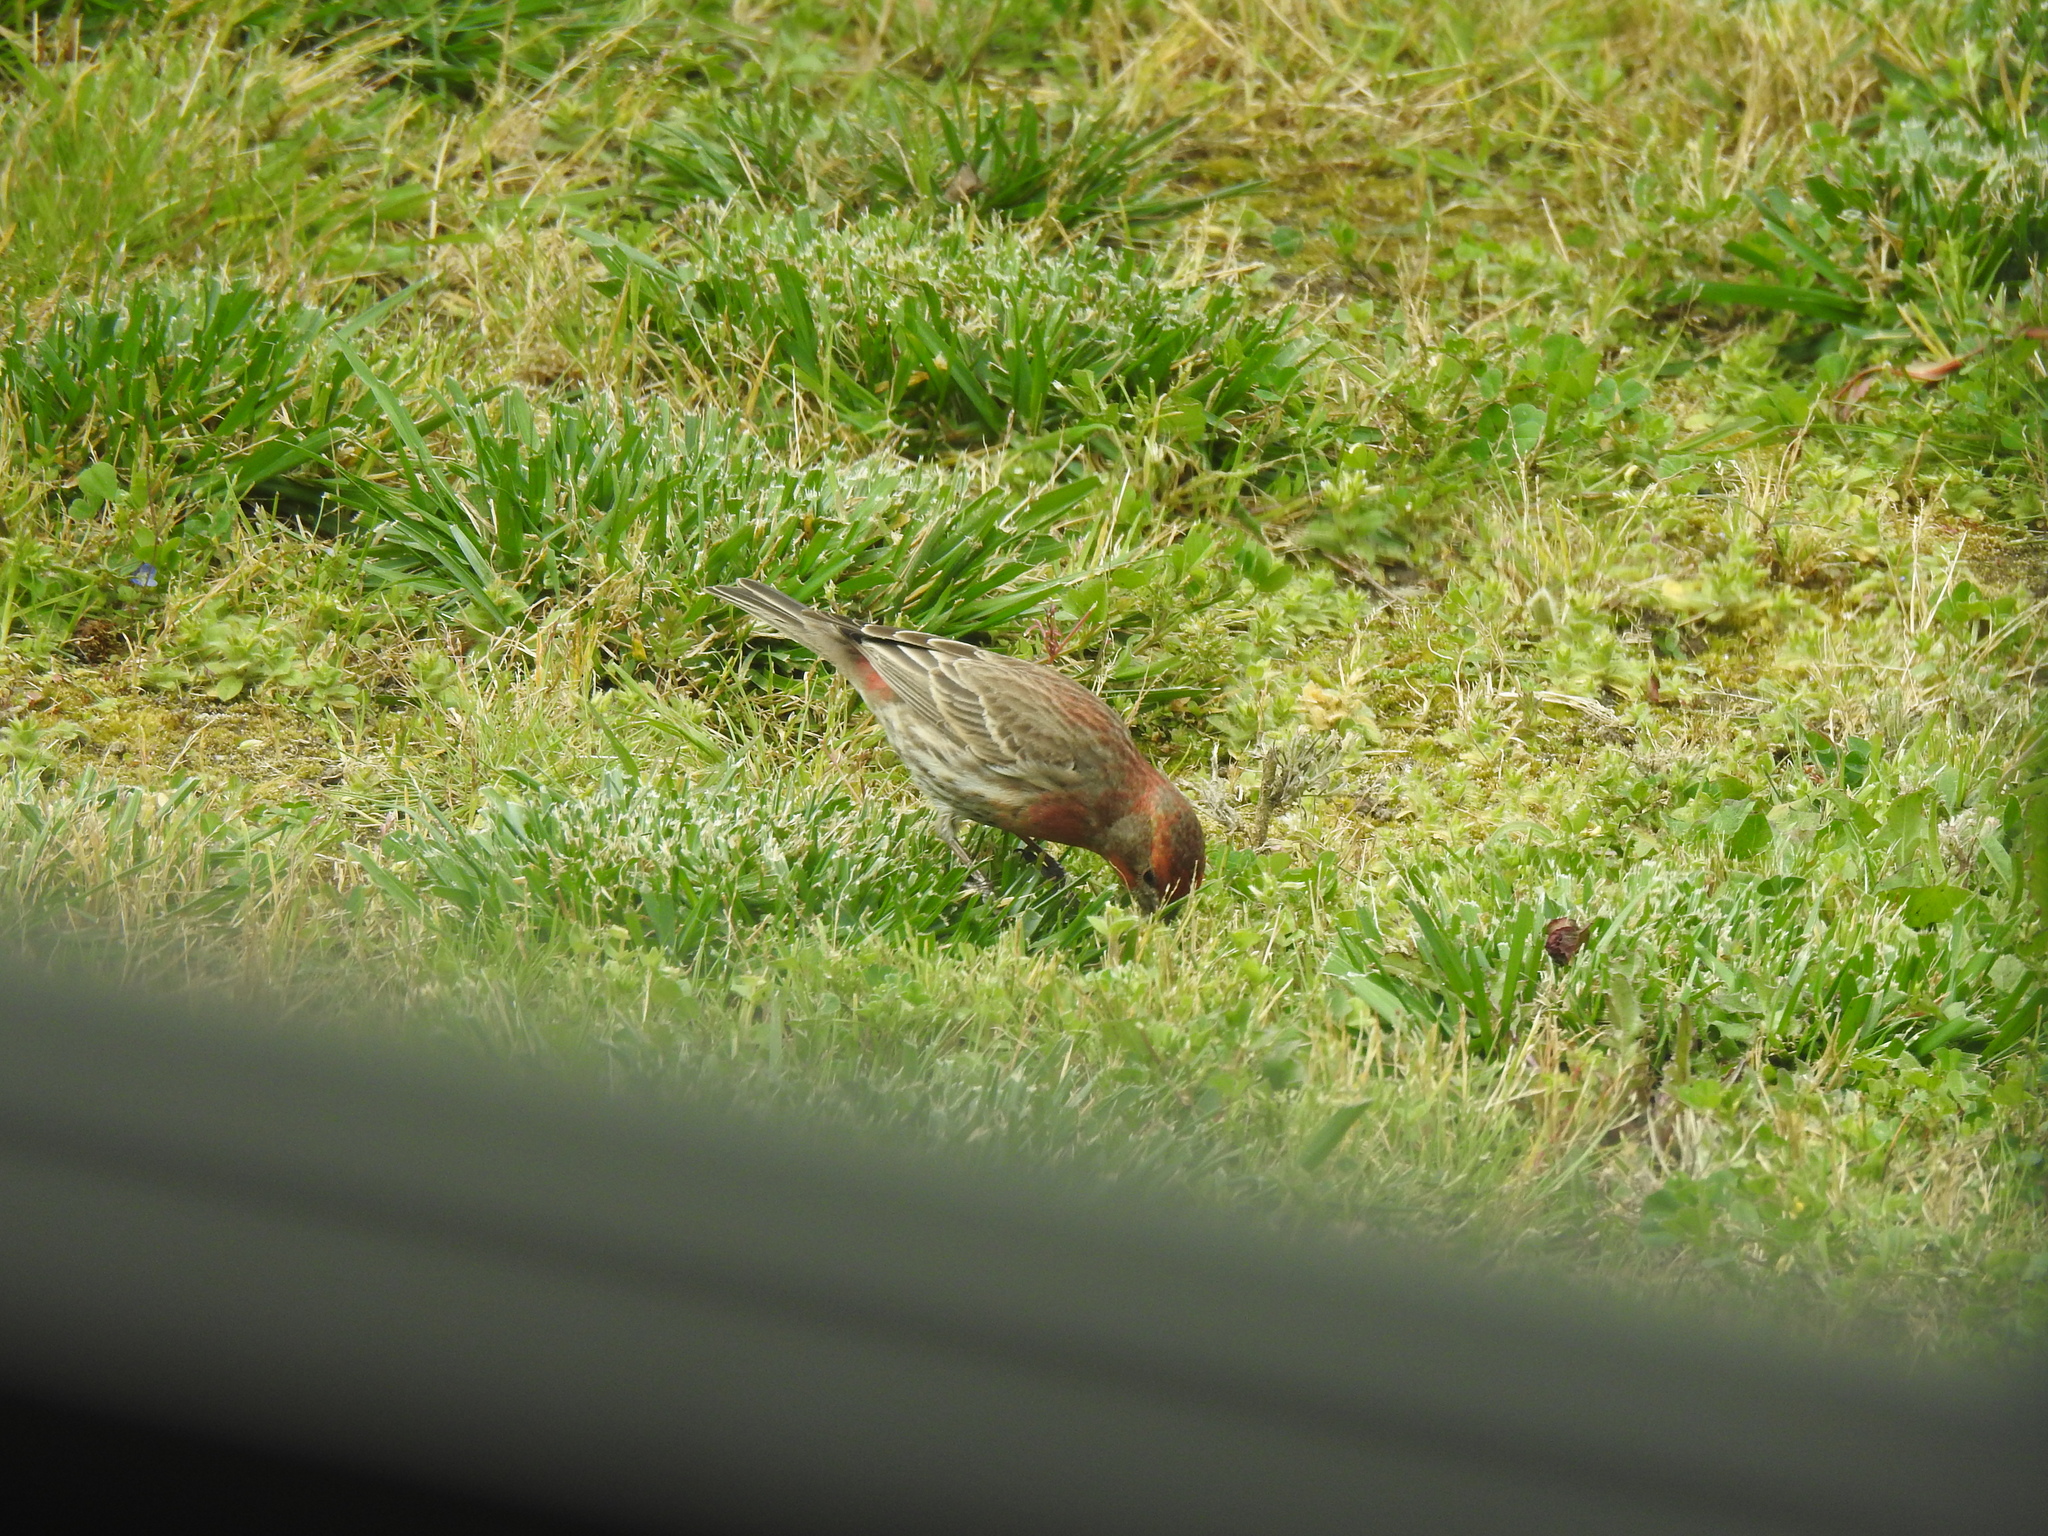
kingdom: Animalia
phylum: Chordata
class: Aves
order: Passeriformes
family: Fringillidae
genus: Haemorhous
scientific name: Haemorhous mexicanus
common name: House finch
